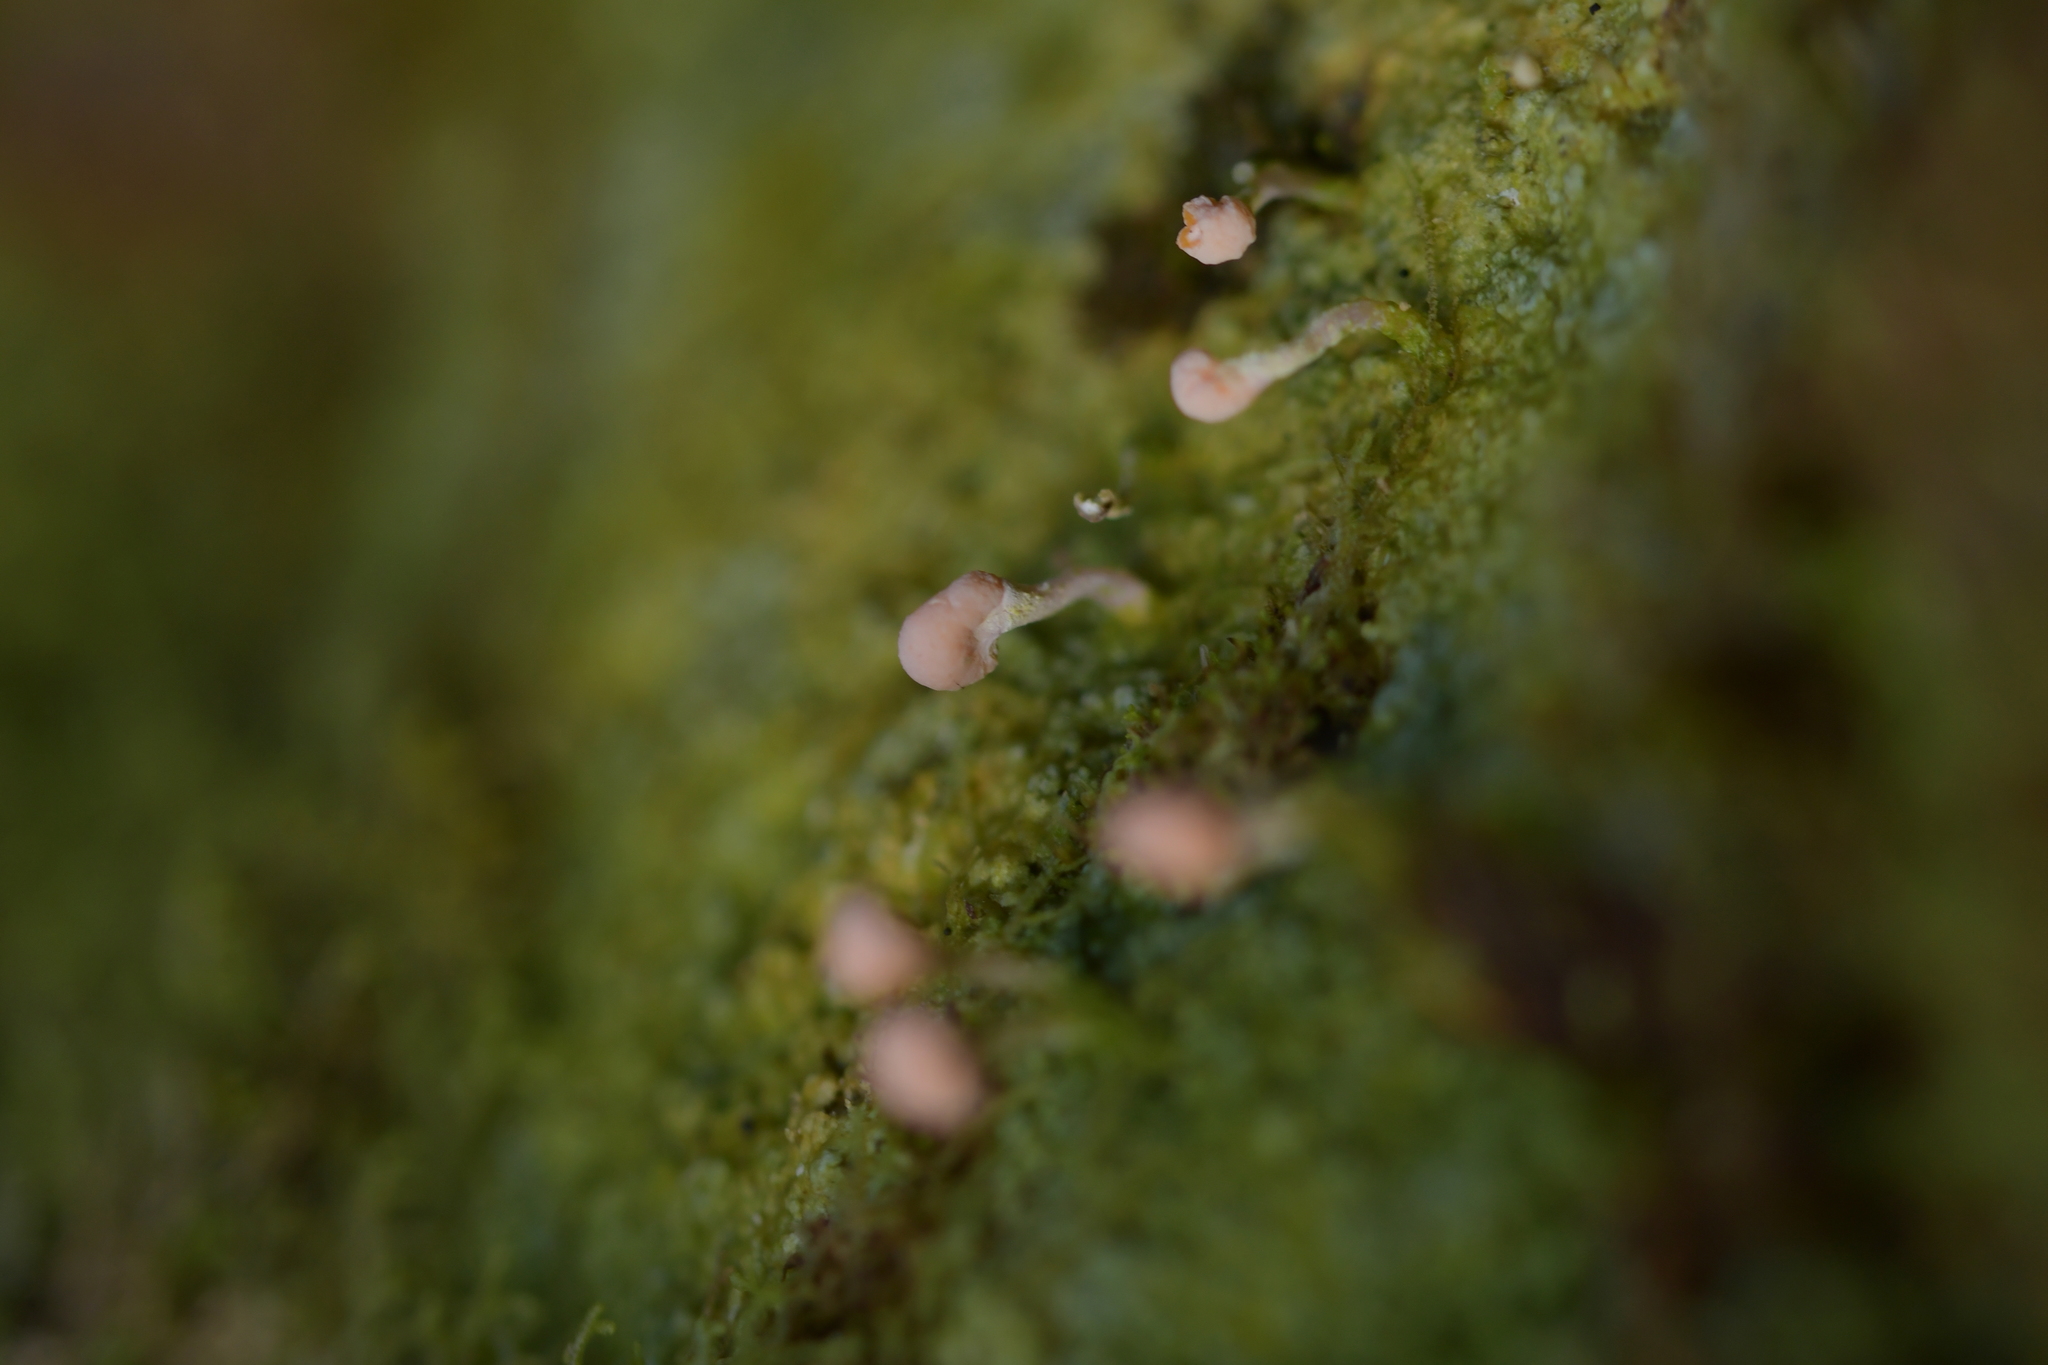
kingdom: Fungi
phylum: Ascomycota
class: Lecanoromycetes
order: Pertusariales
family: Icmadophilaceae
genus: Dibaeis
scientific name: Dibaeis arcuata
